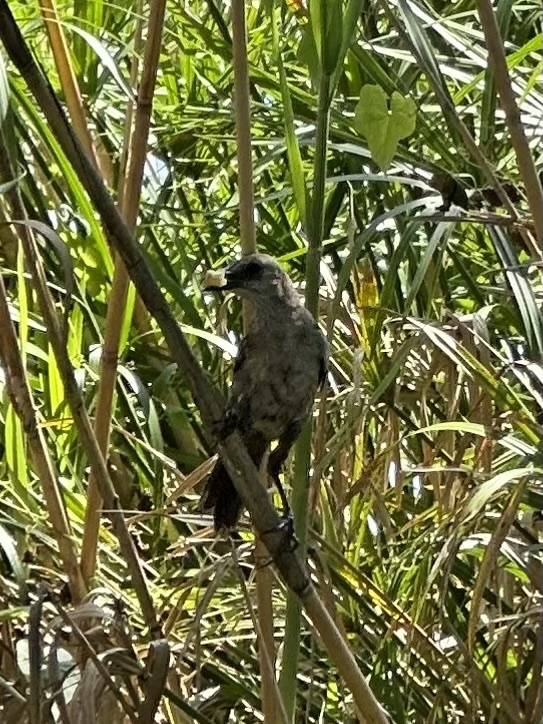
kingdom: Animalia
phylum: Chordata
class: Aves
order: Passeriformes
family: Icteridae
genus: Quiscalus
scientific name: Quiscalus major
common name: Boat-tailed grackle
